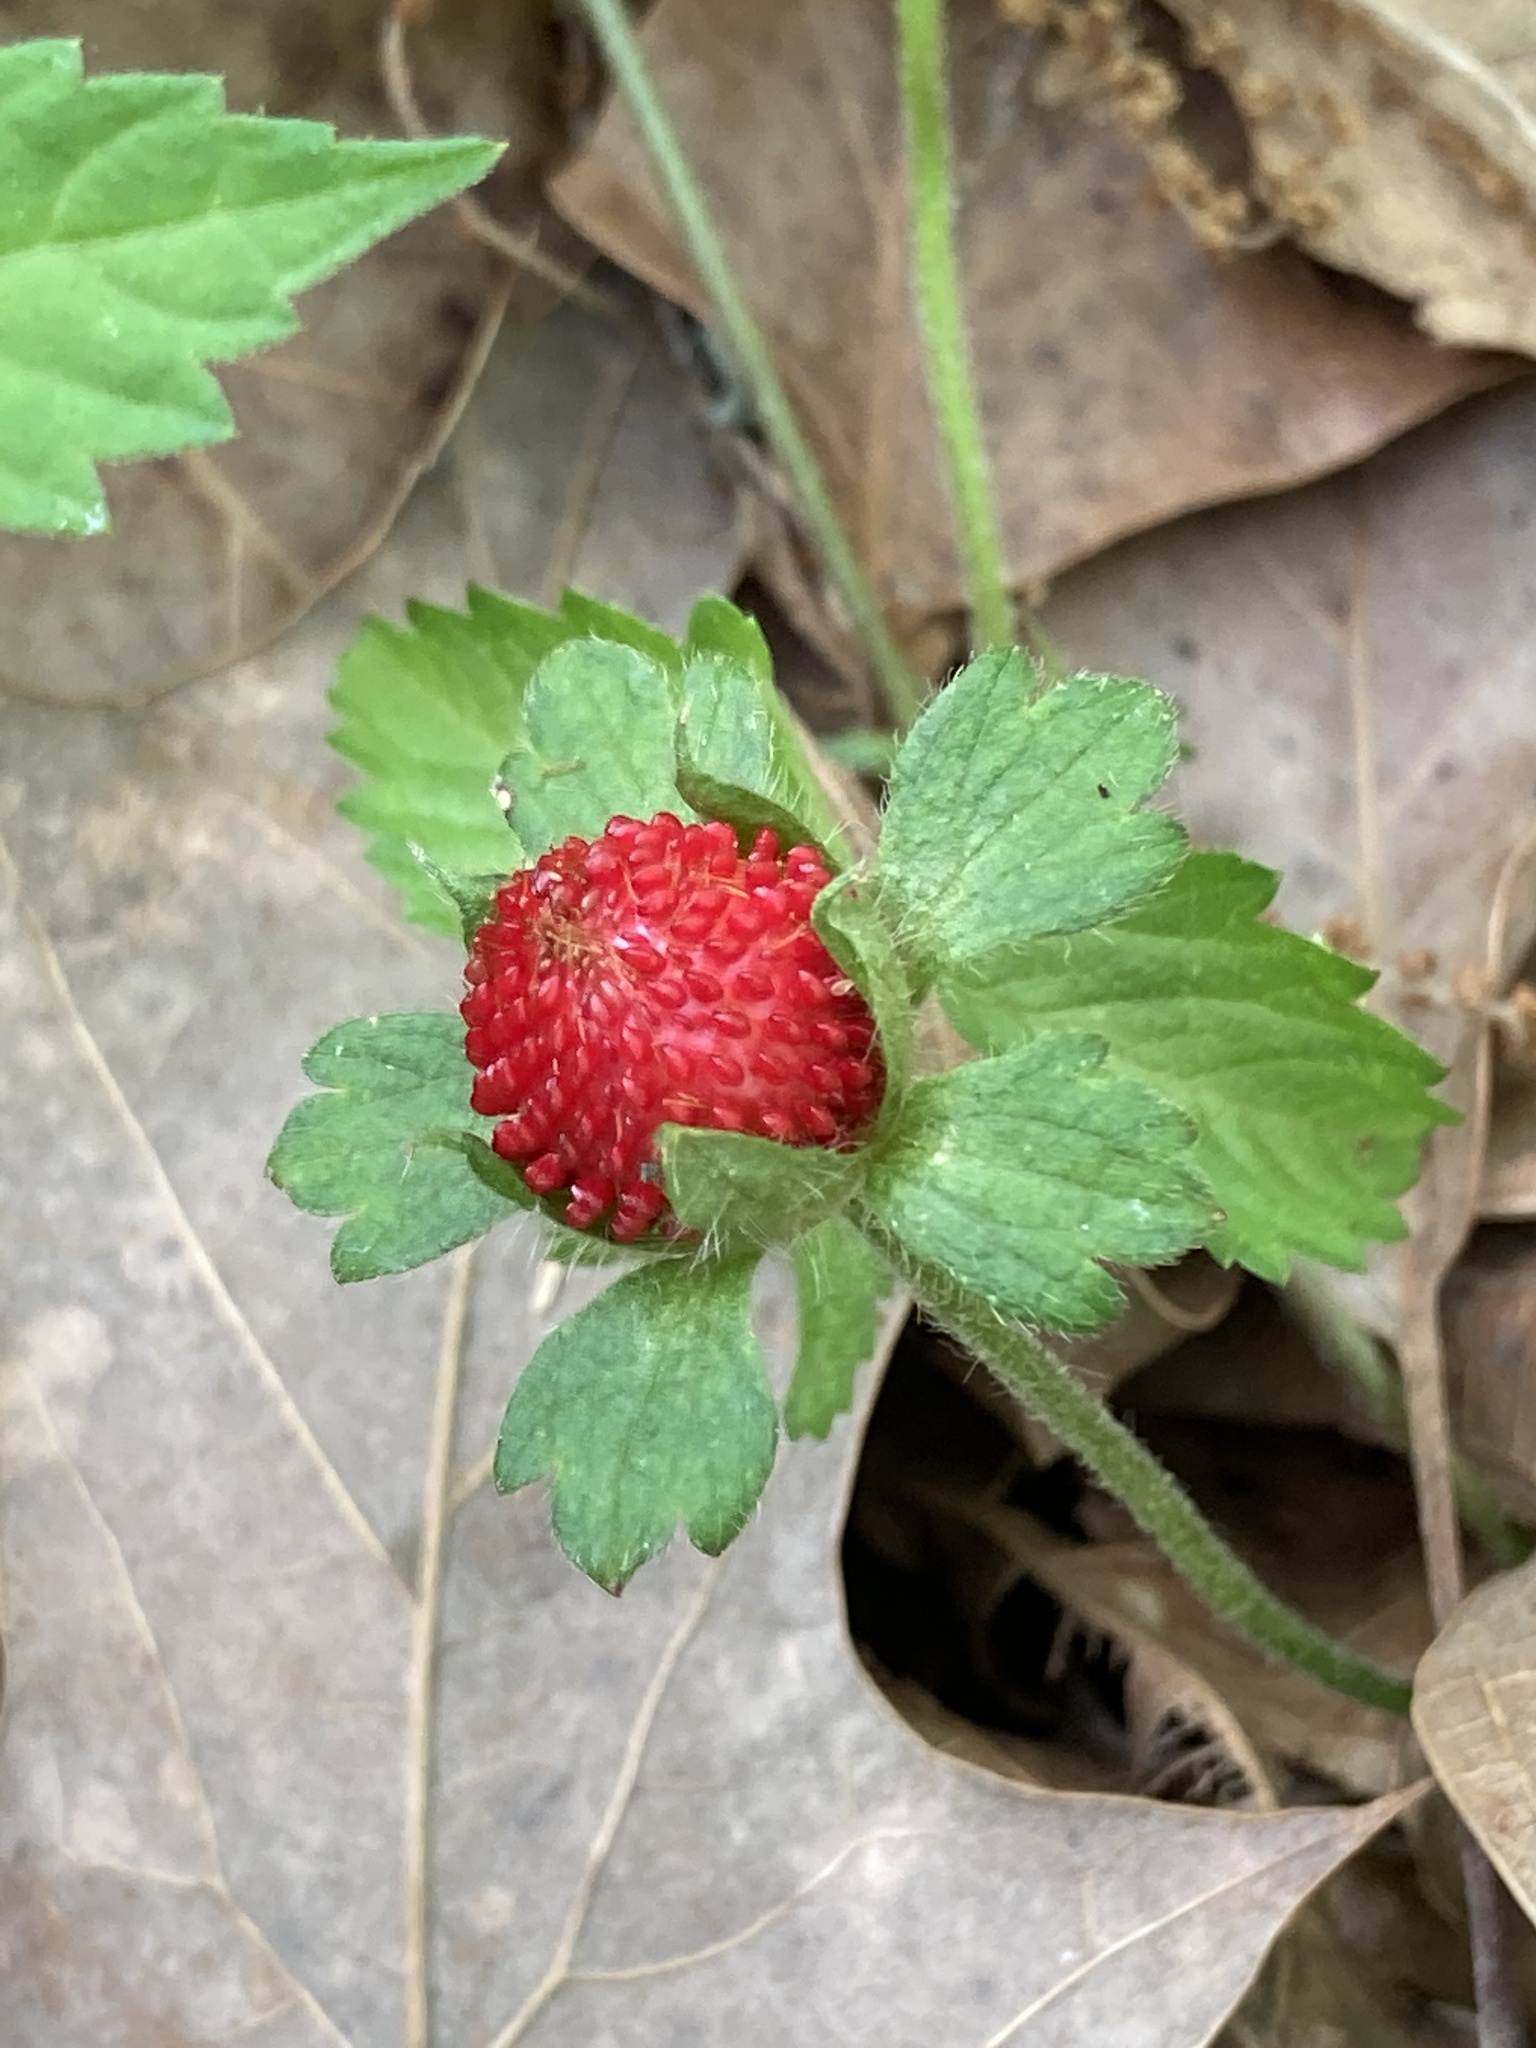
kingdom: Plantae
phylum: Tracheophyta
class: Magnoliopsida
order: Rosales
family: Rosaceae
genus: Potentilla
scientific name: Potentilla indica
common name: Yellow-flowered strawberry
